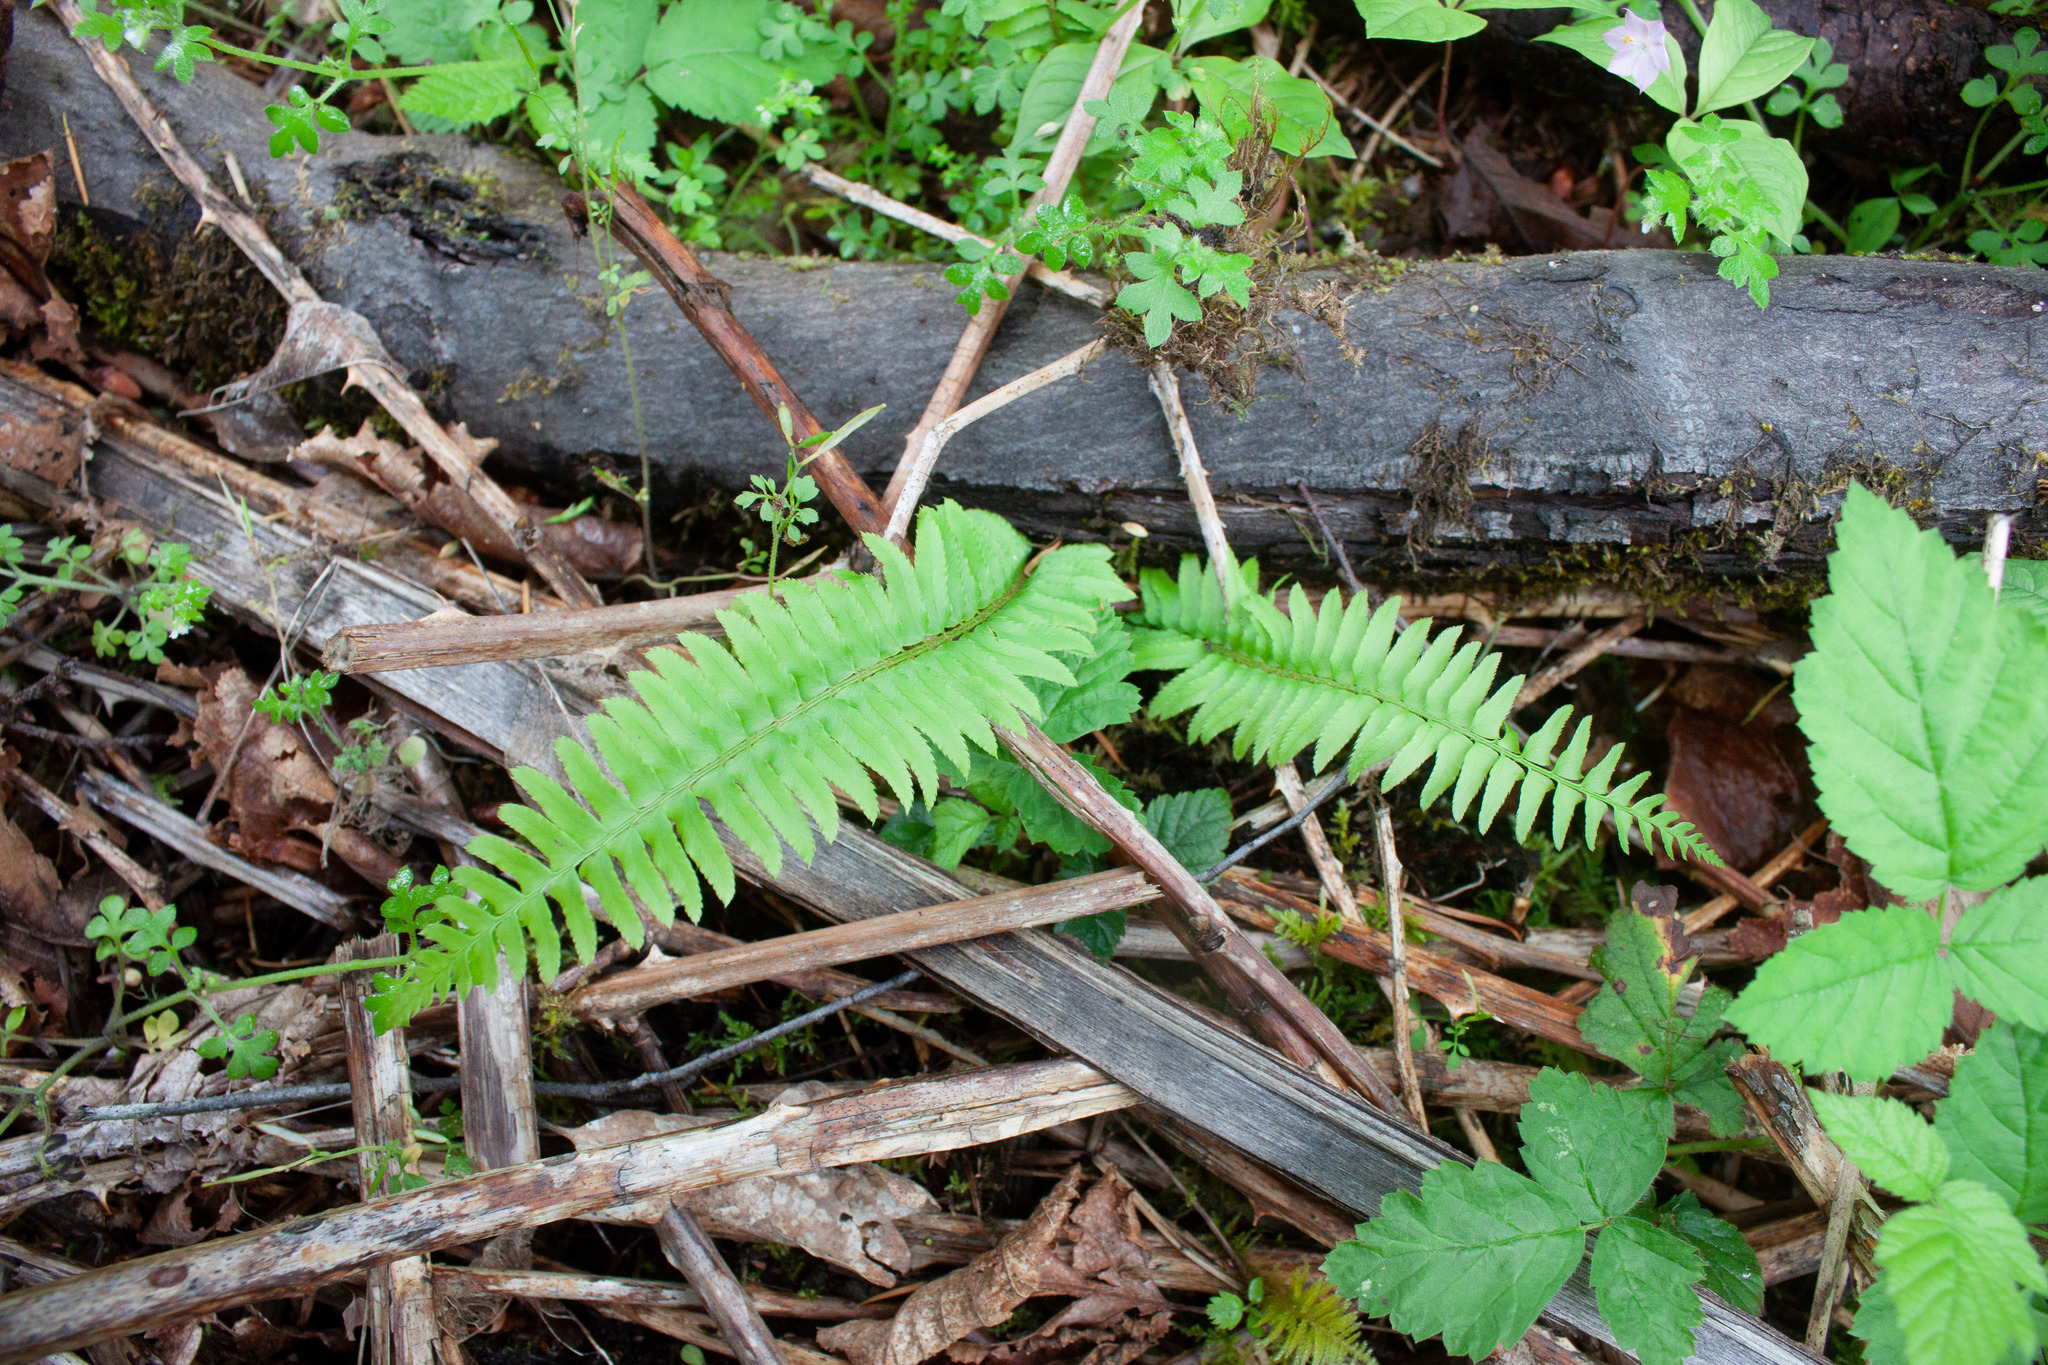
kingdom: Plantae
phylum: Tracheophyta
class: Polypodiopsida
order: Polypodiales
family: Dryopteridaceae
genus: Polystichum
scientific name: Polystichum munitum
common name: Western sword-fern
